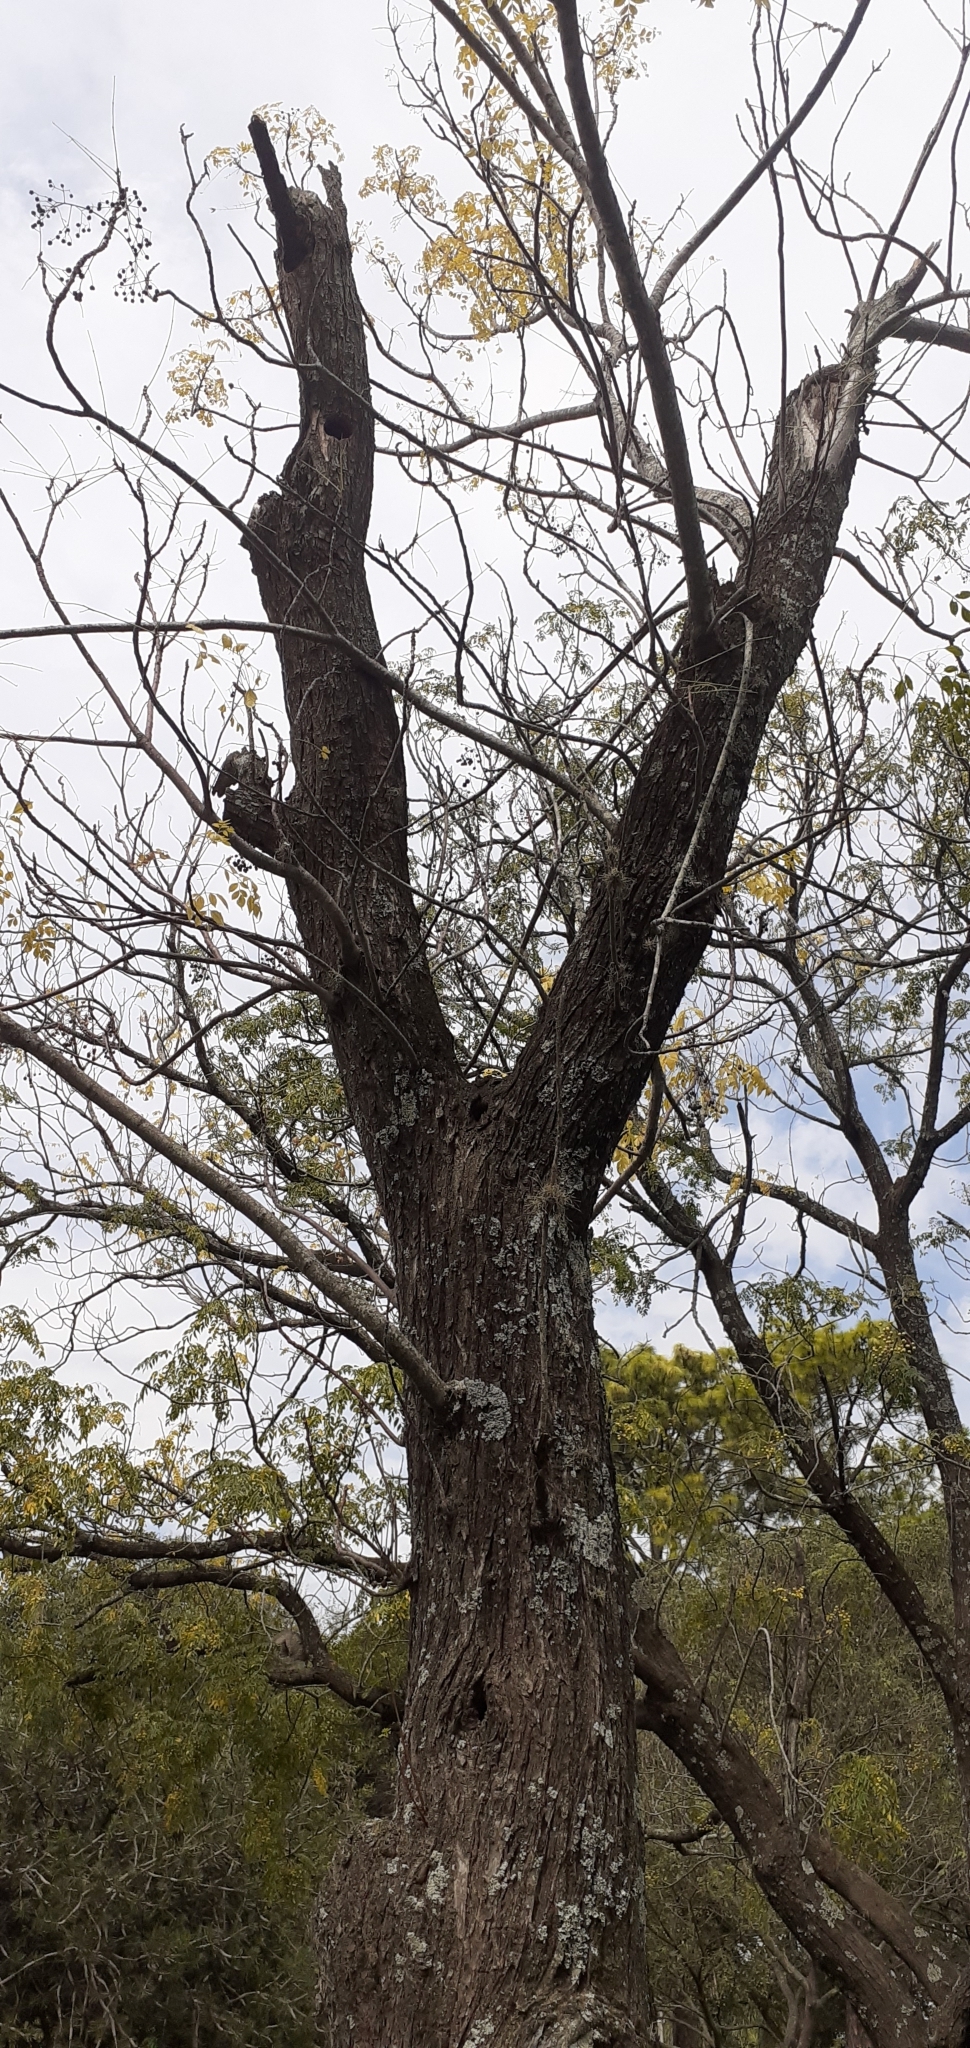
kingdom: Plantae
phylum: Tracheophyta
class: Magnoliopsida
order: Sapindales
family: Meliaceae
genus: Melia
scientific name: Melia azedarach
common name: Chinaberrytree
